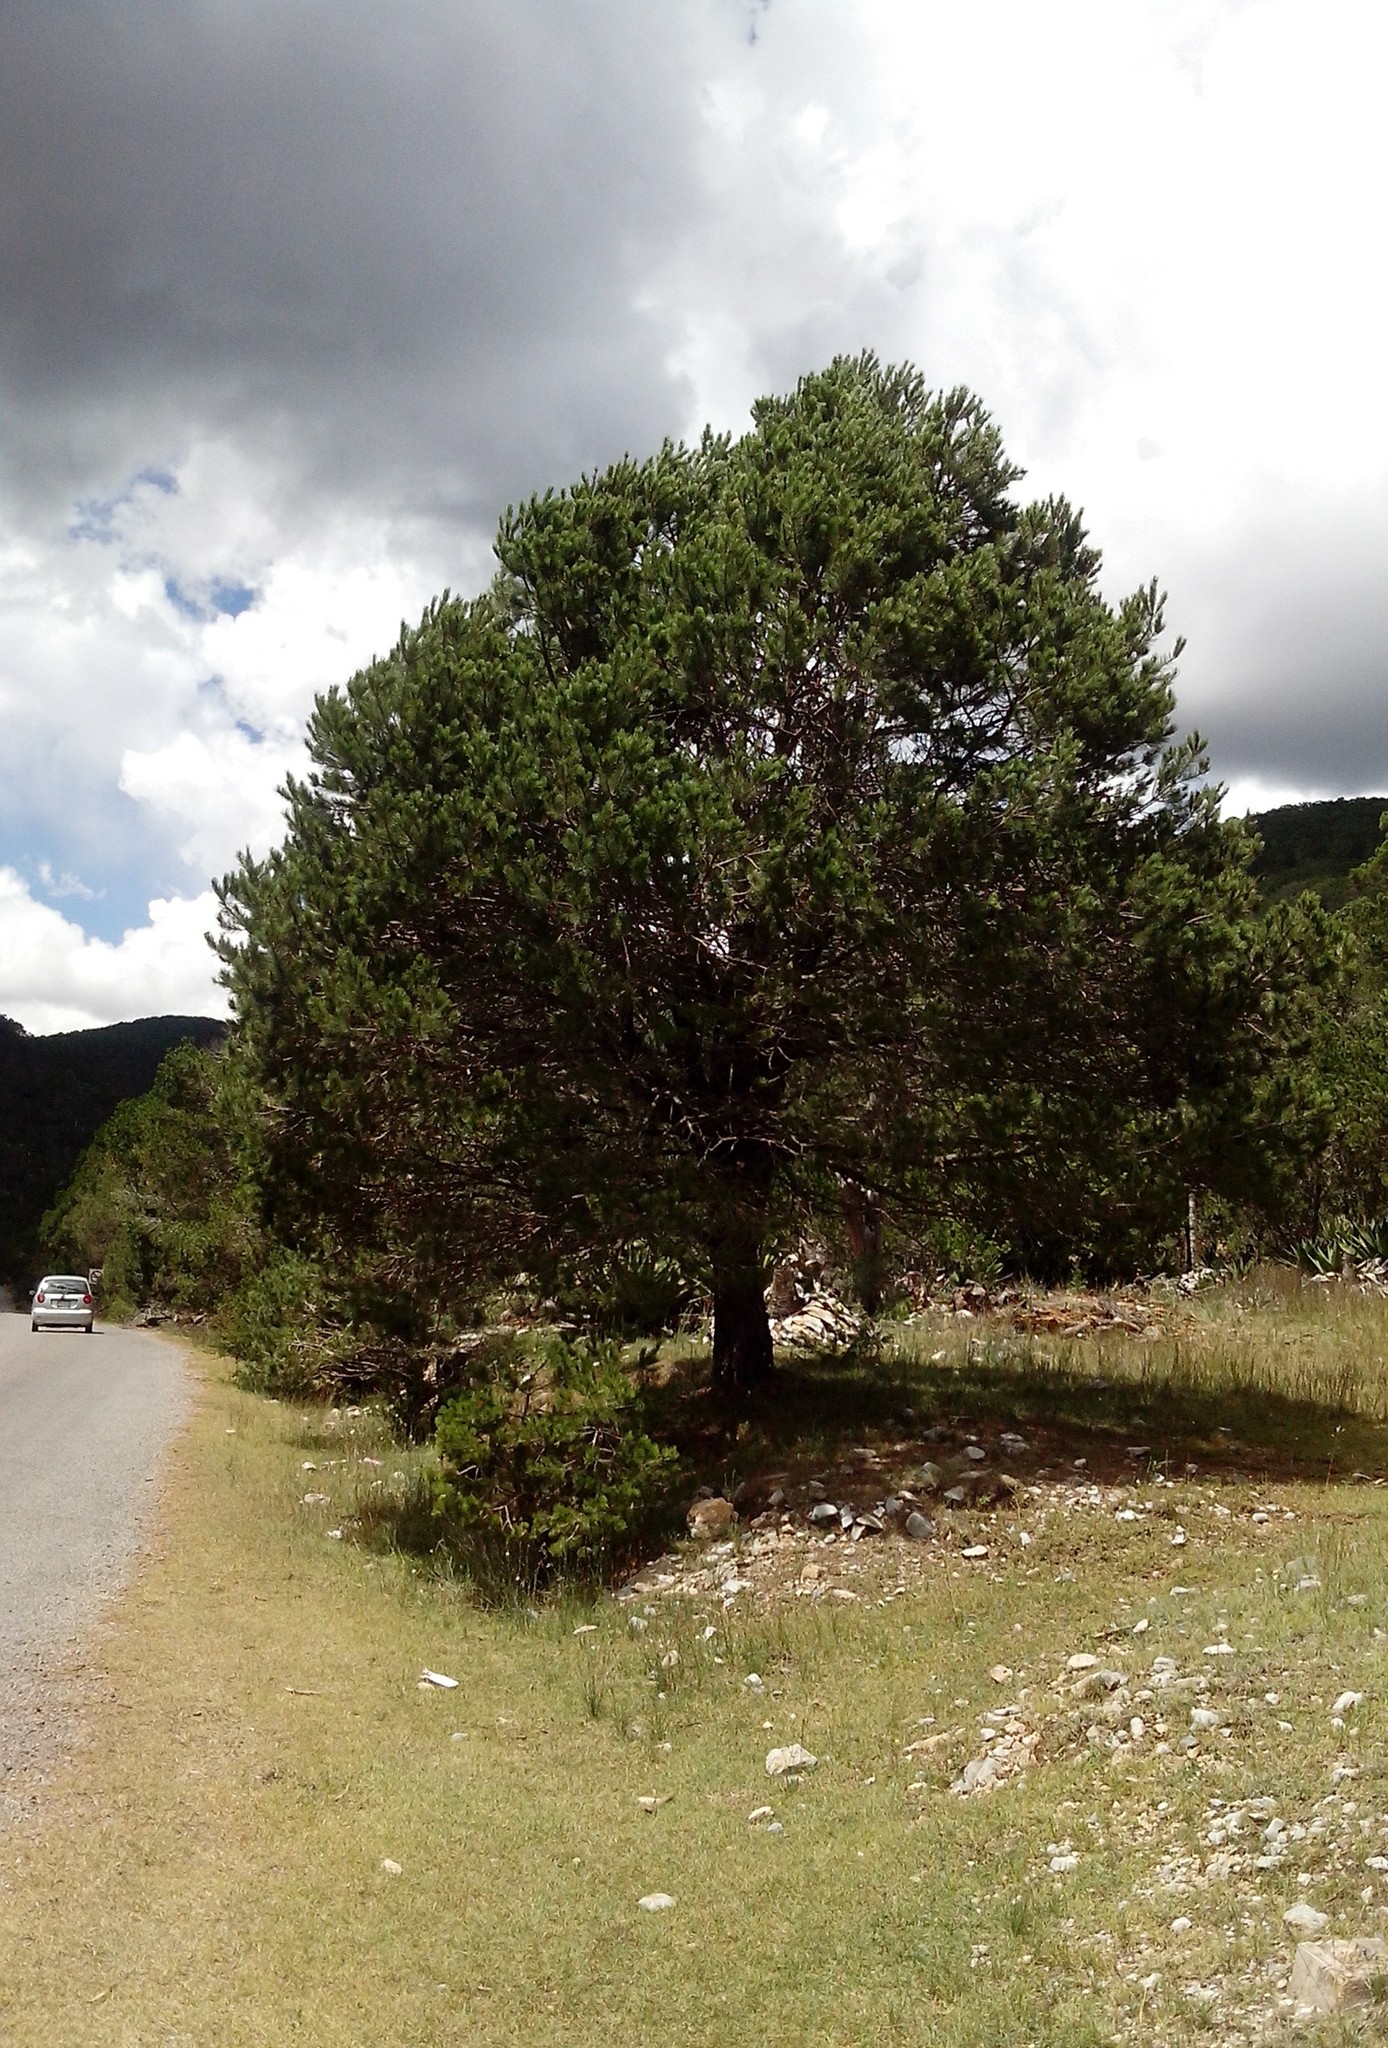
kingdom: Plantae
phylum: Tracheophyta
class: Pinopsida
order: Pinales
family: Pinaceae
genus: Pinus
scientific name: Pinus cembroides
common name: Mexican nut pine
